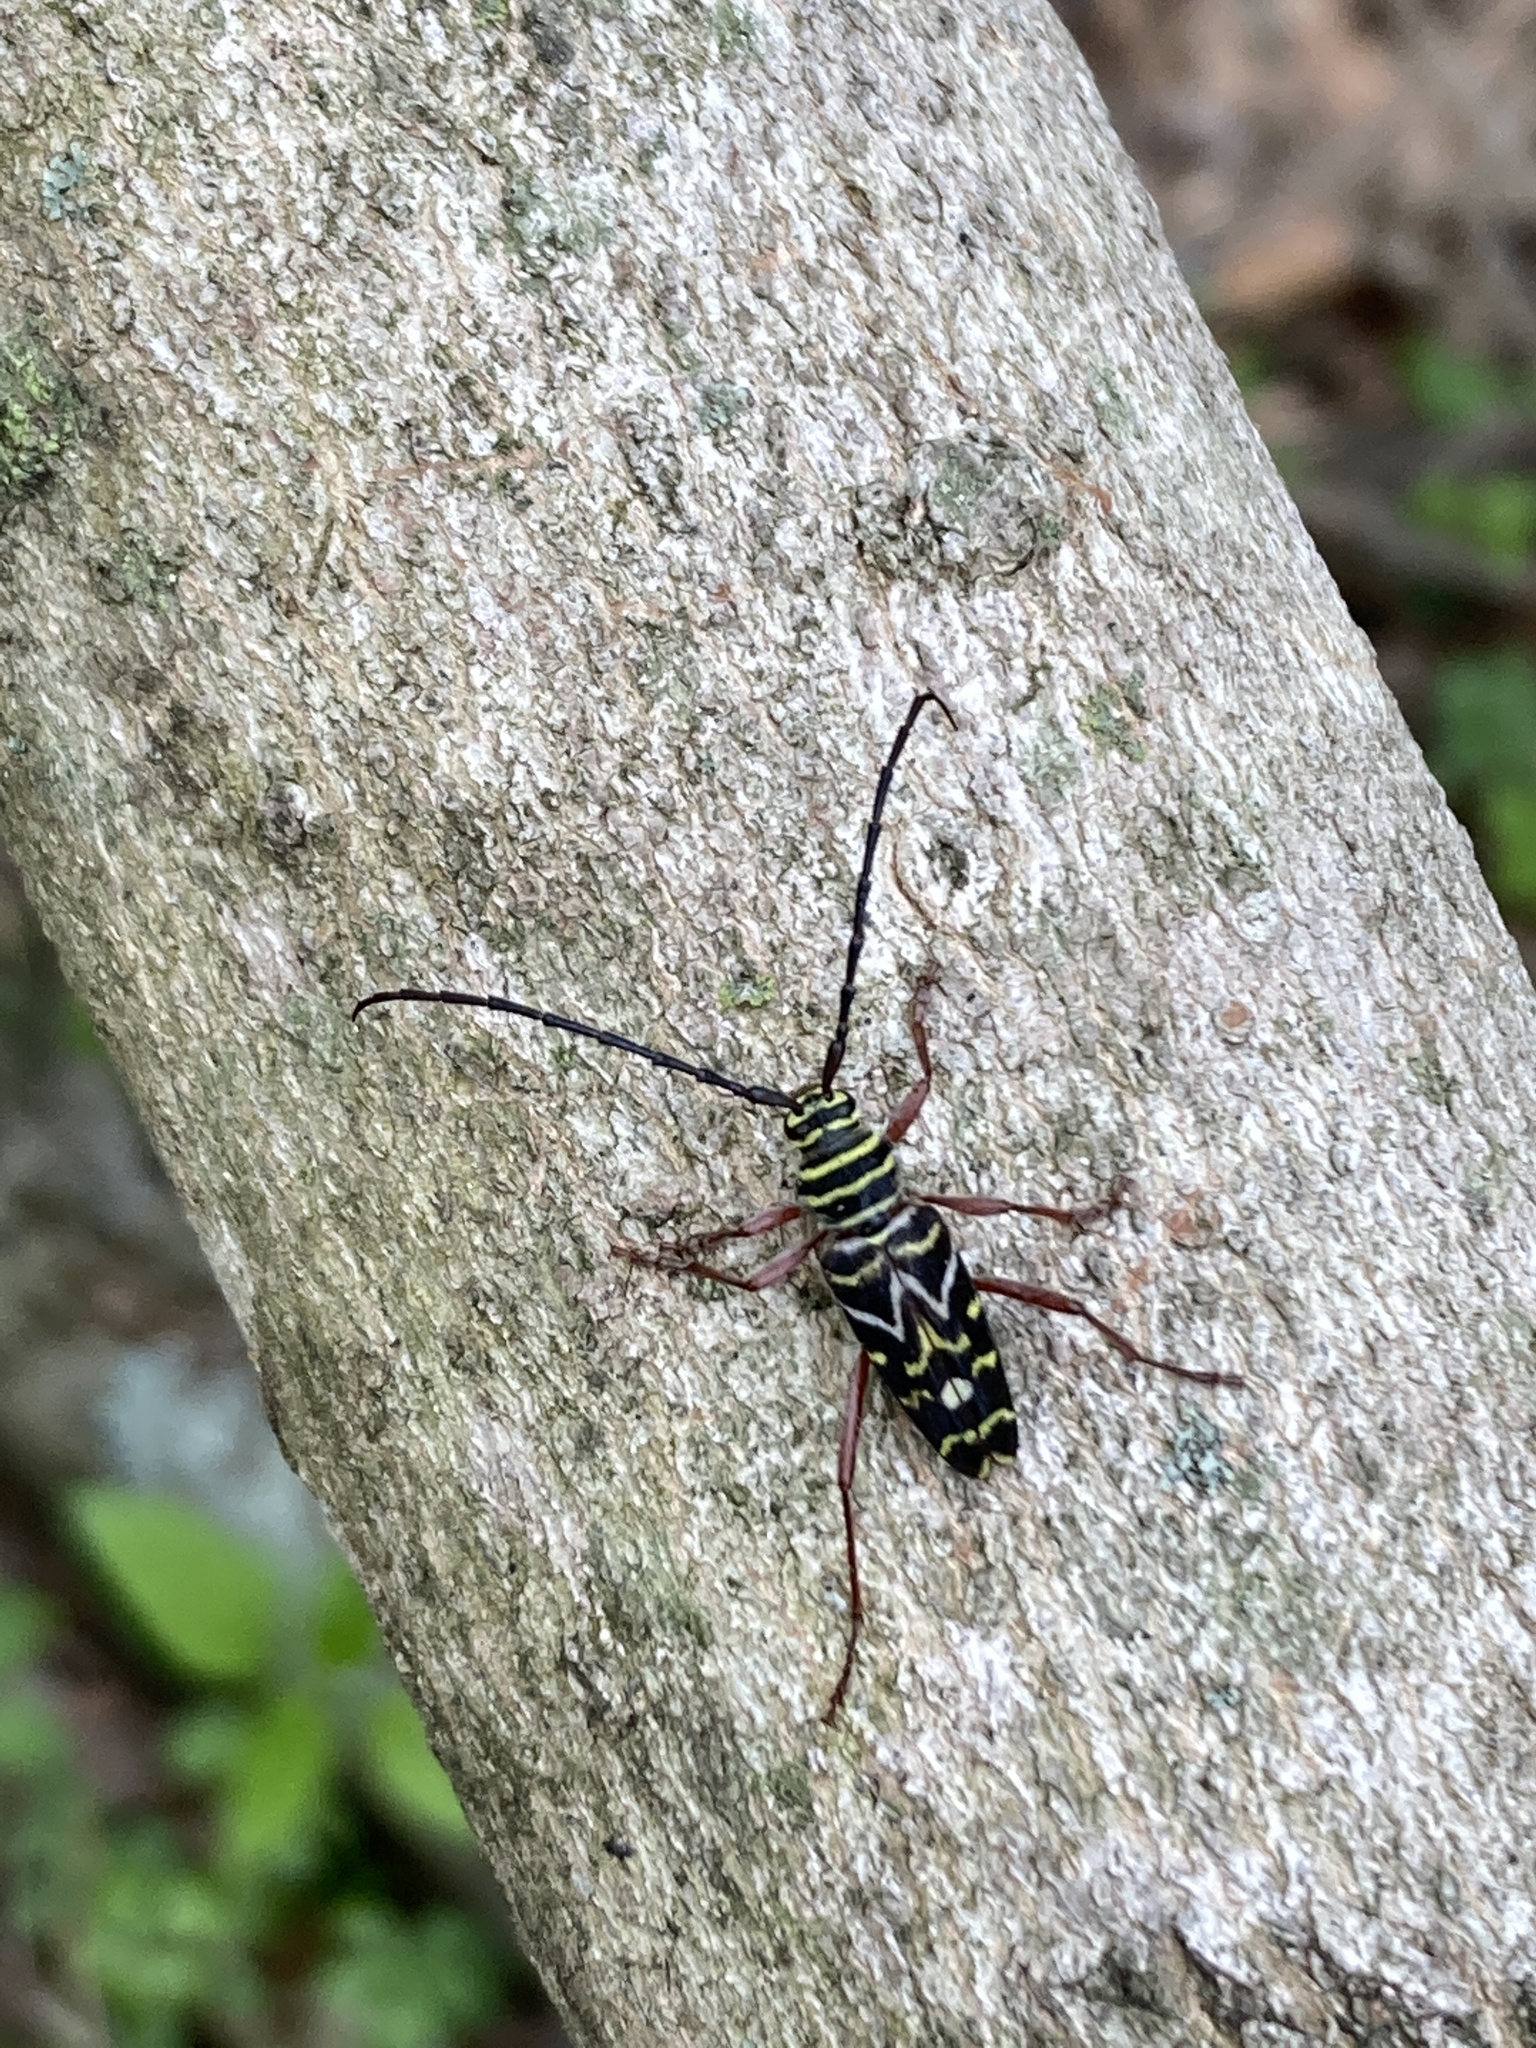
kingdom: Animalia
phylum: Arthropoda
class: Insecta
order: Coleoptera
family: Cerambycidae
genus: Megacyllene
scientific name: Megacyllene caryae
